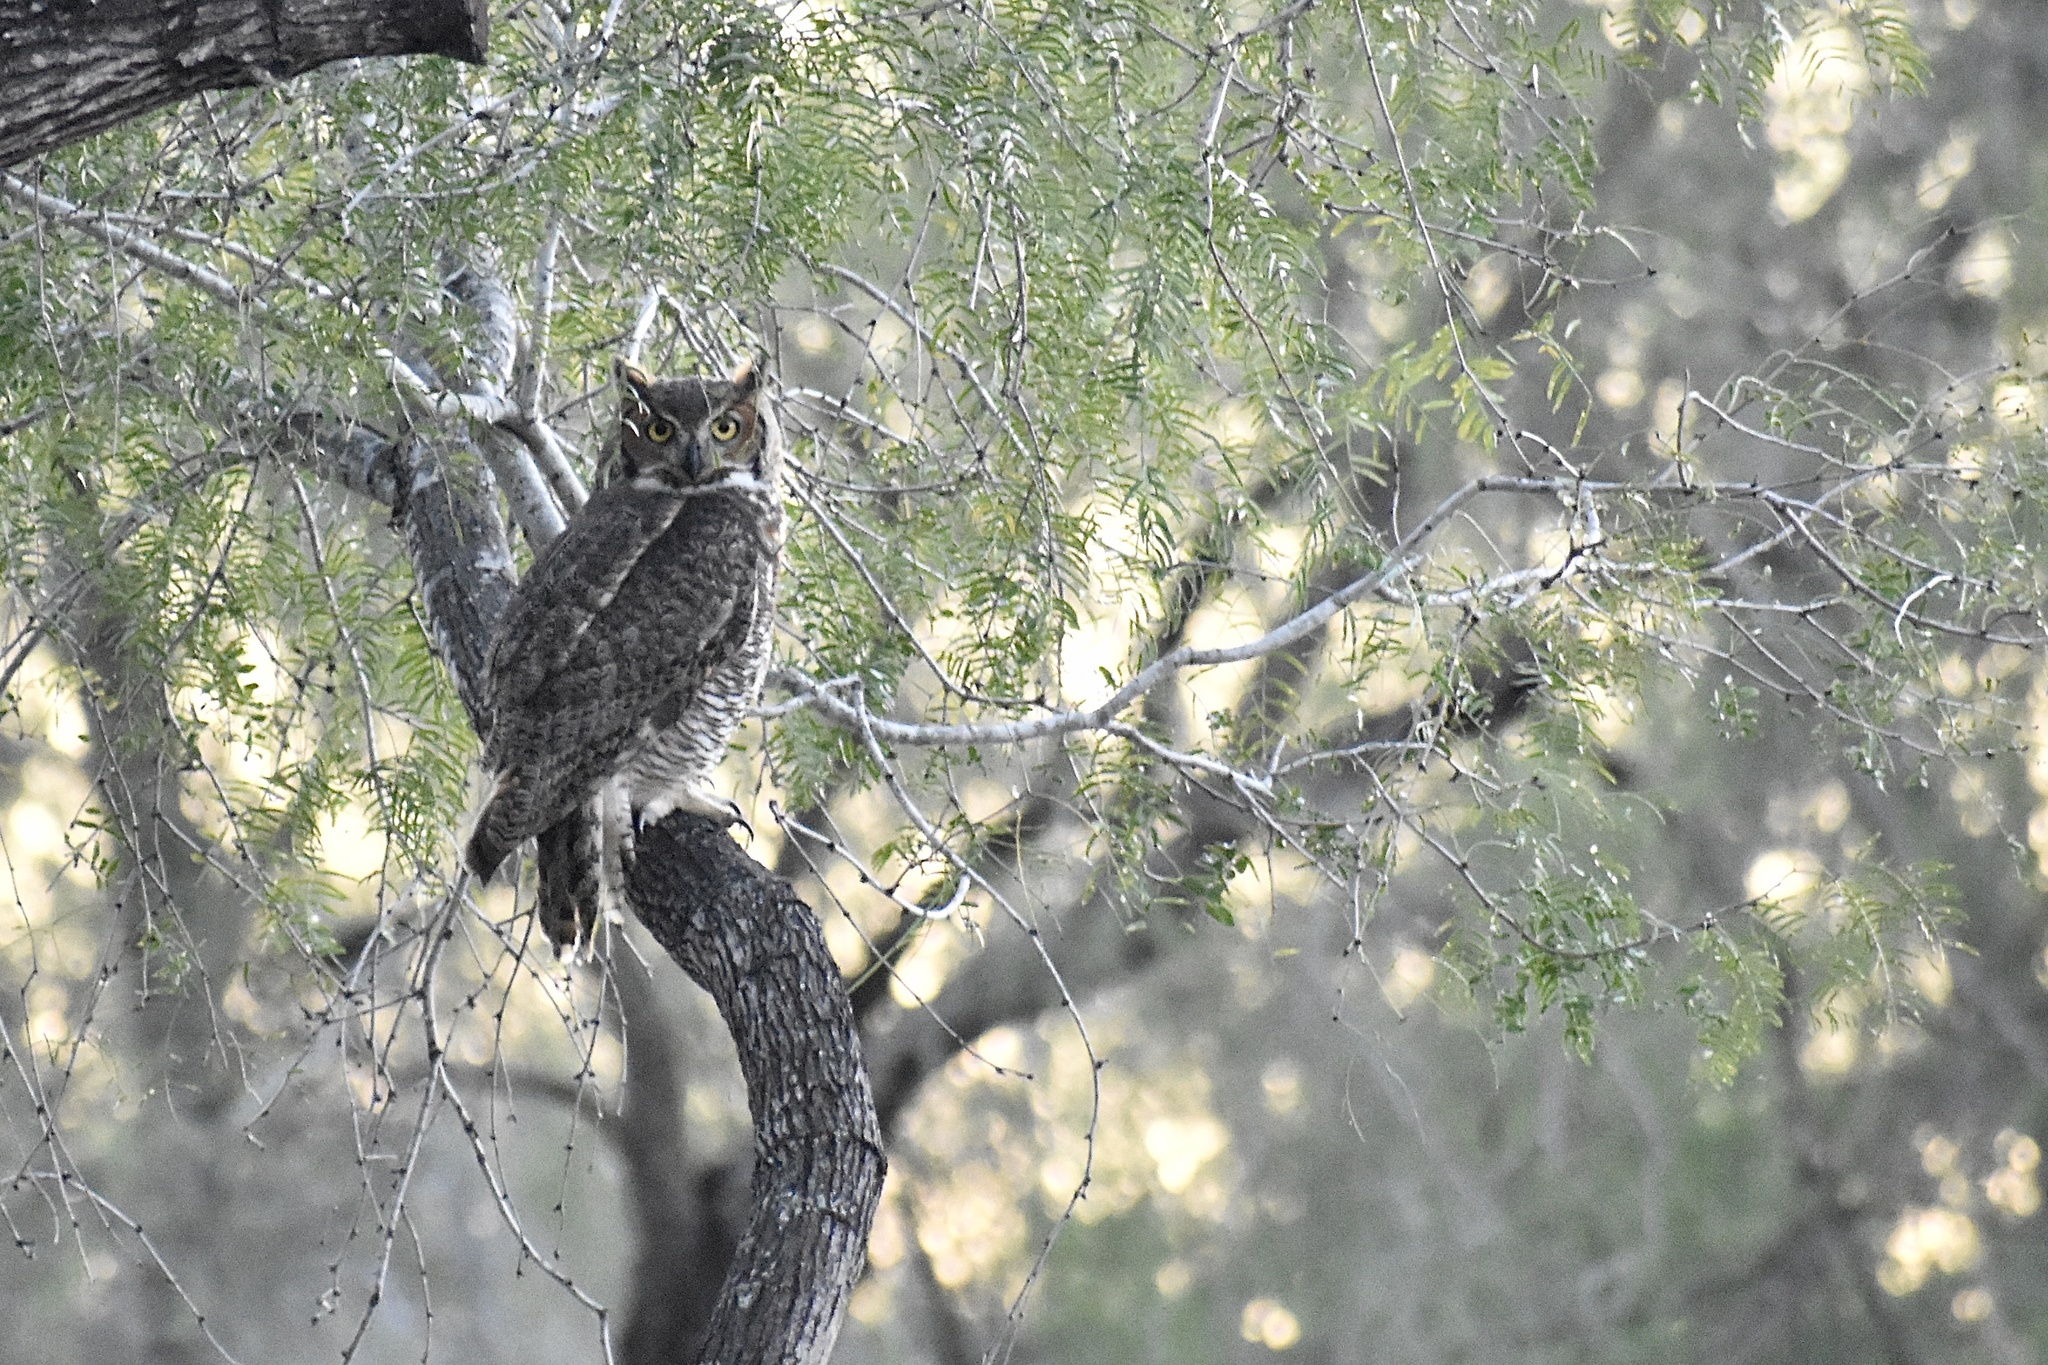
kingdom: Animalia
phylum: Chordata
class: Aves
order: Strigiformes
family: Strigidae
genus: Bubo
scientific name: Bubo virginianus
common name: Great horned owl
